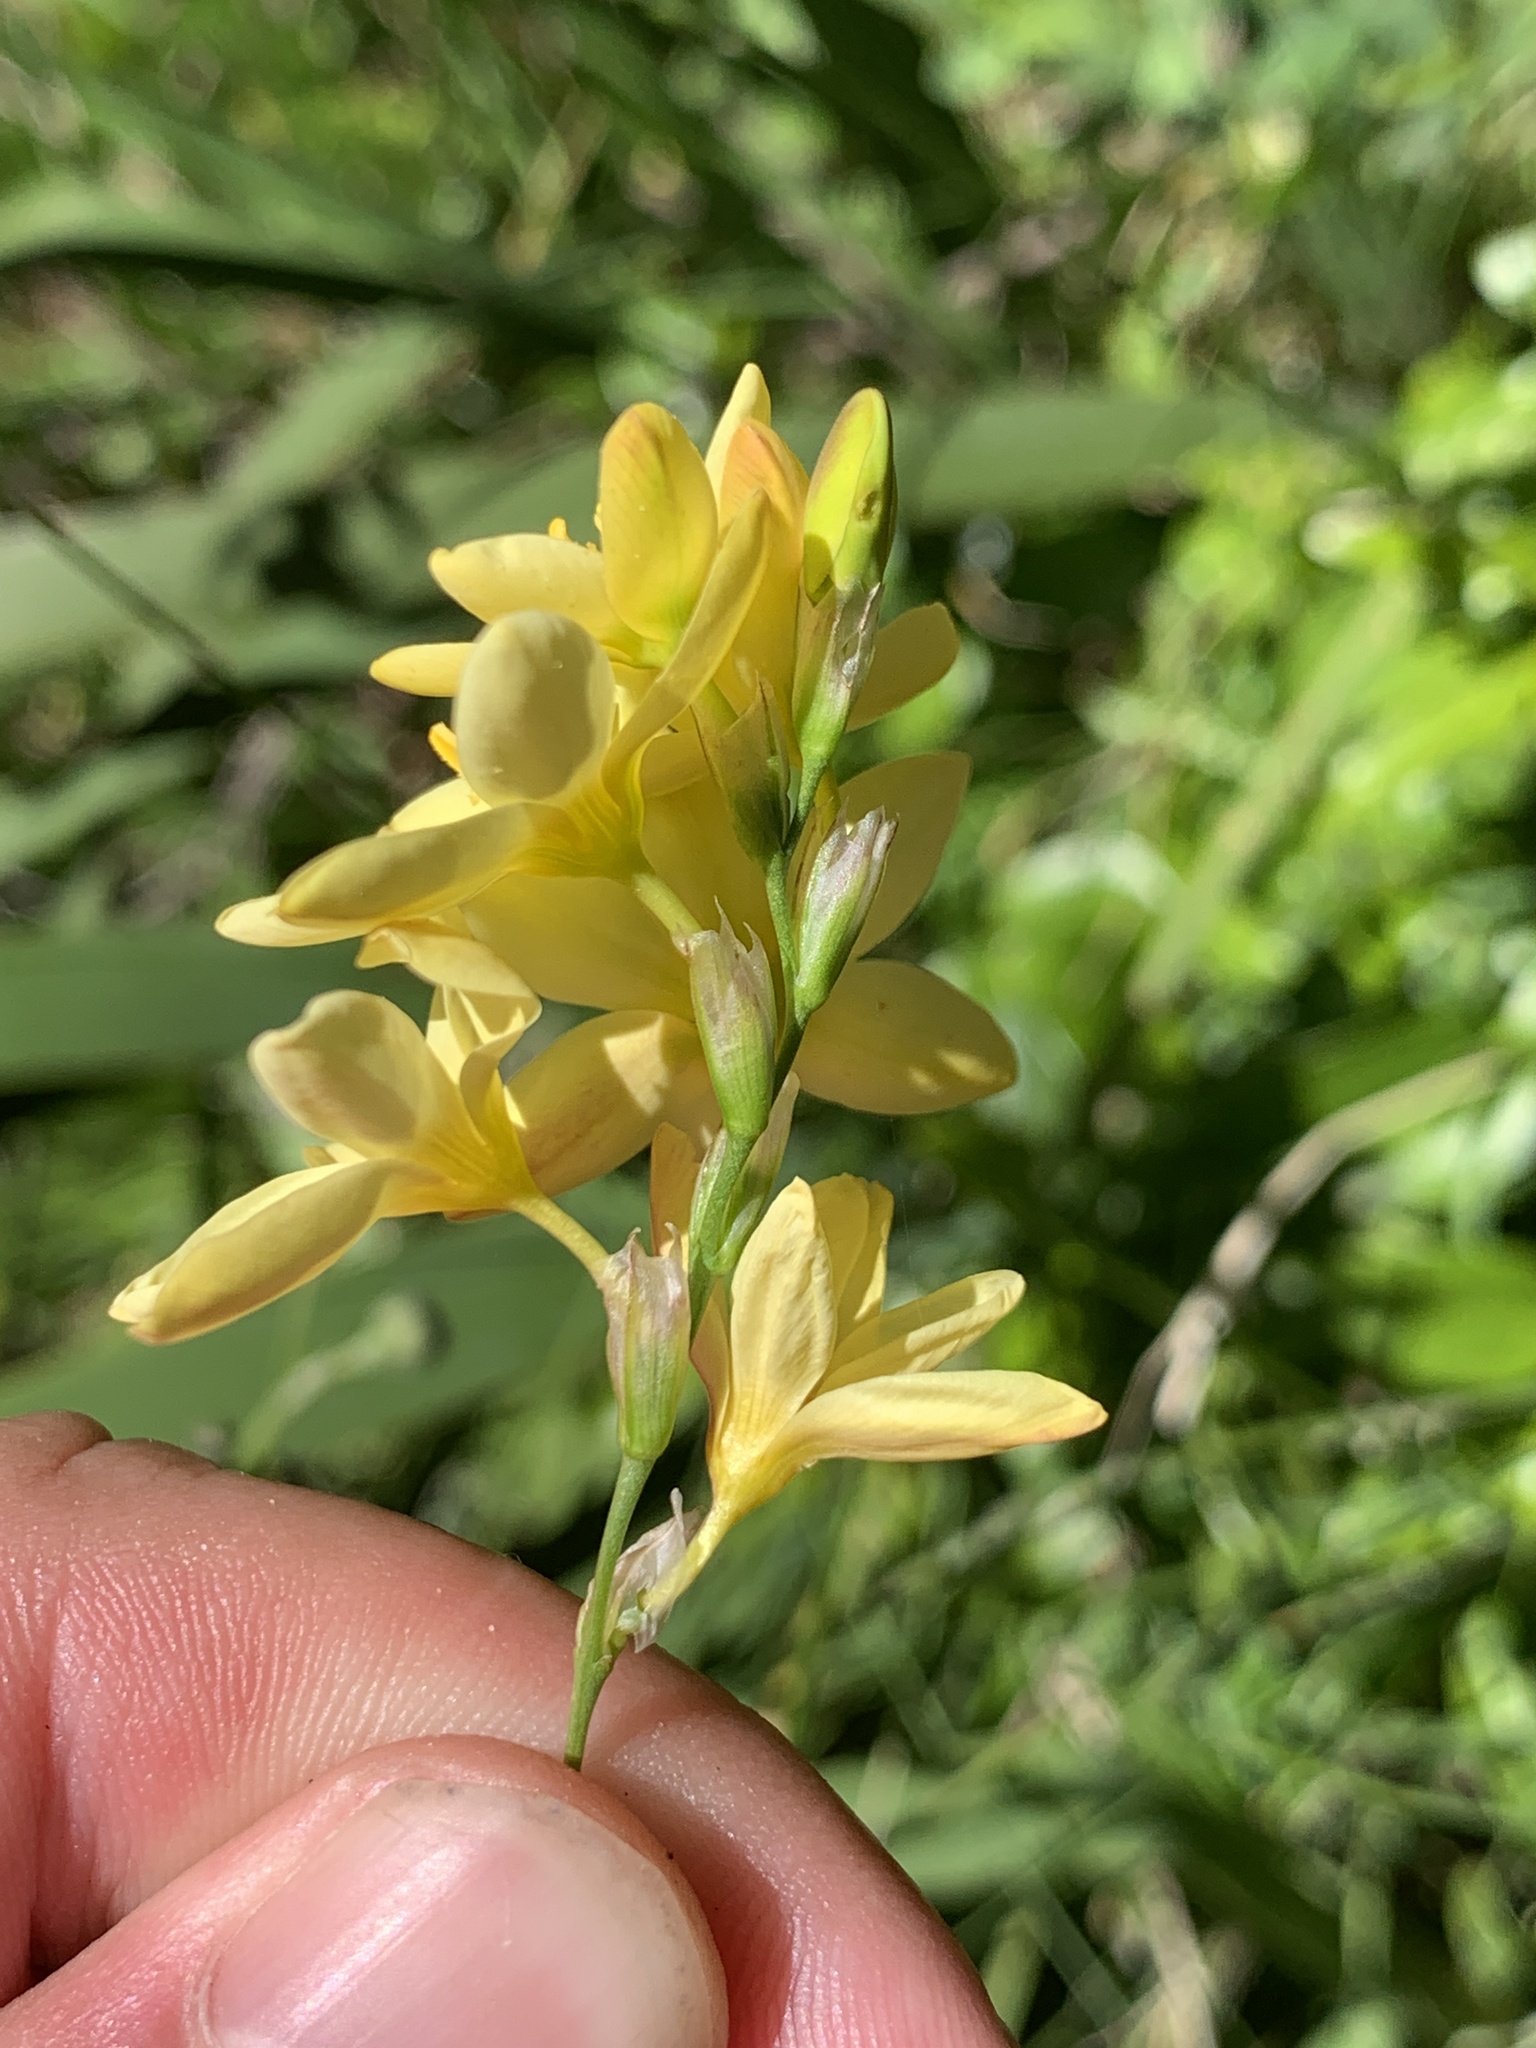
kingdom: Plantae
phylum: Tracheophyta
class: Liliopsida
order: Asparagales
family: Iridaceae
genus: Ixia
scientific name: Ixia odorata
